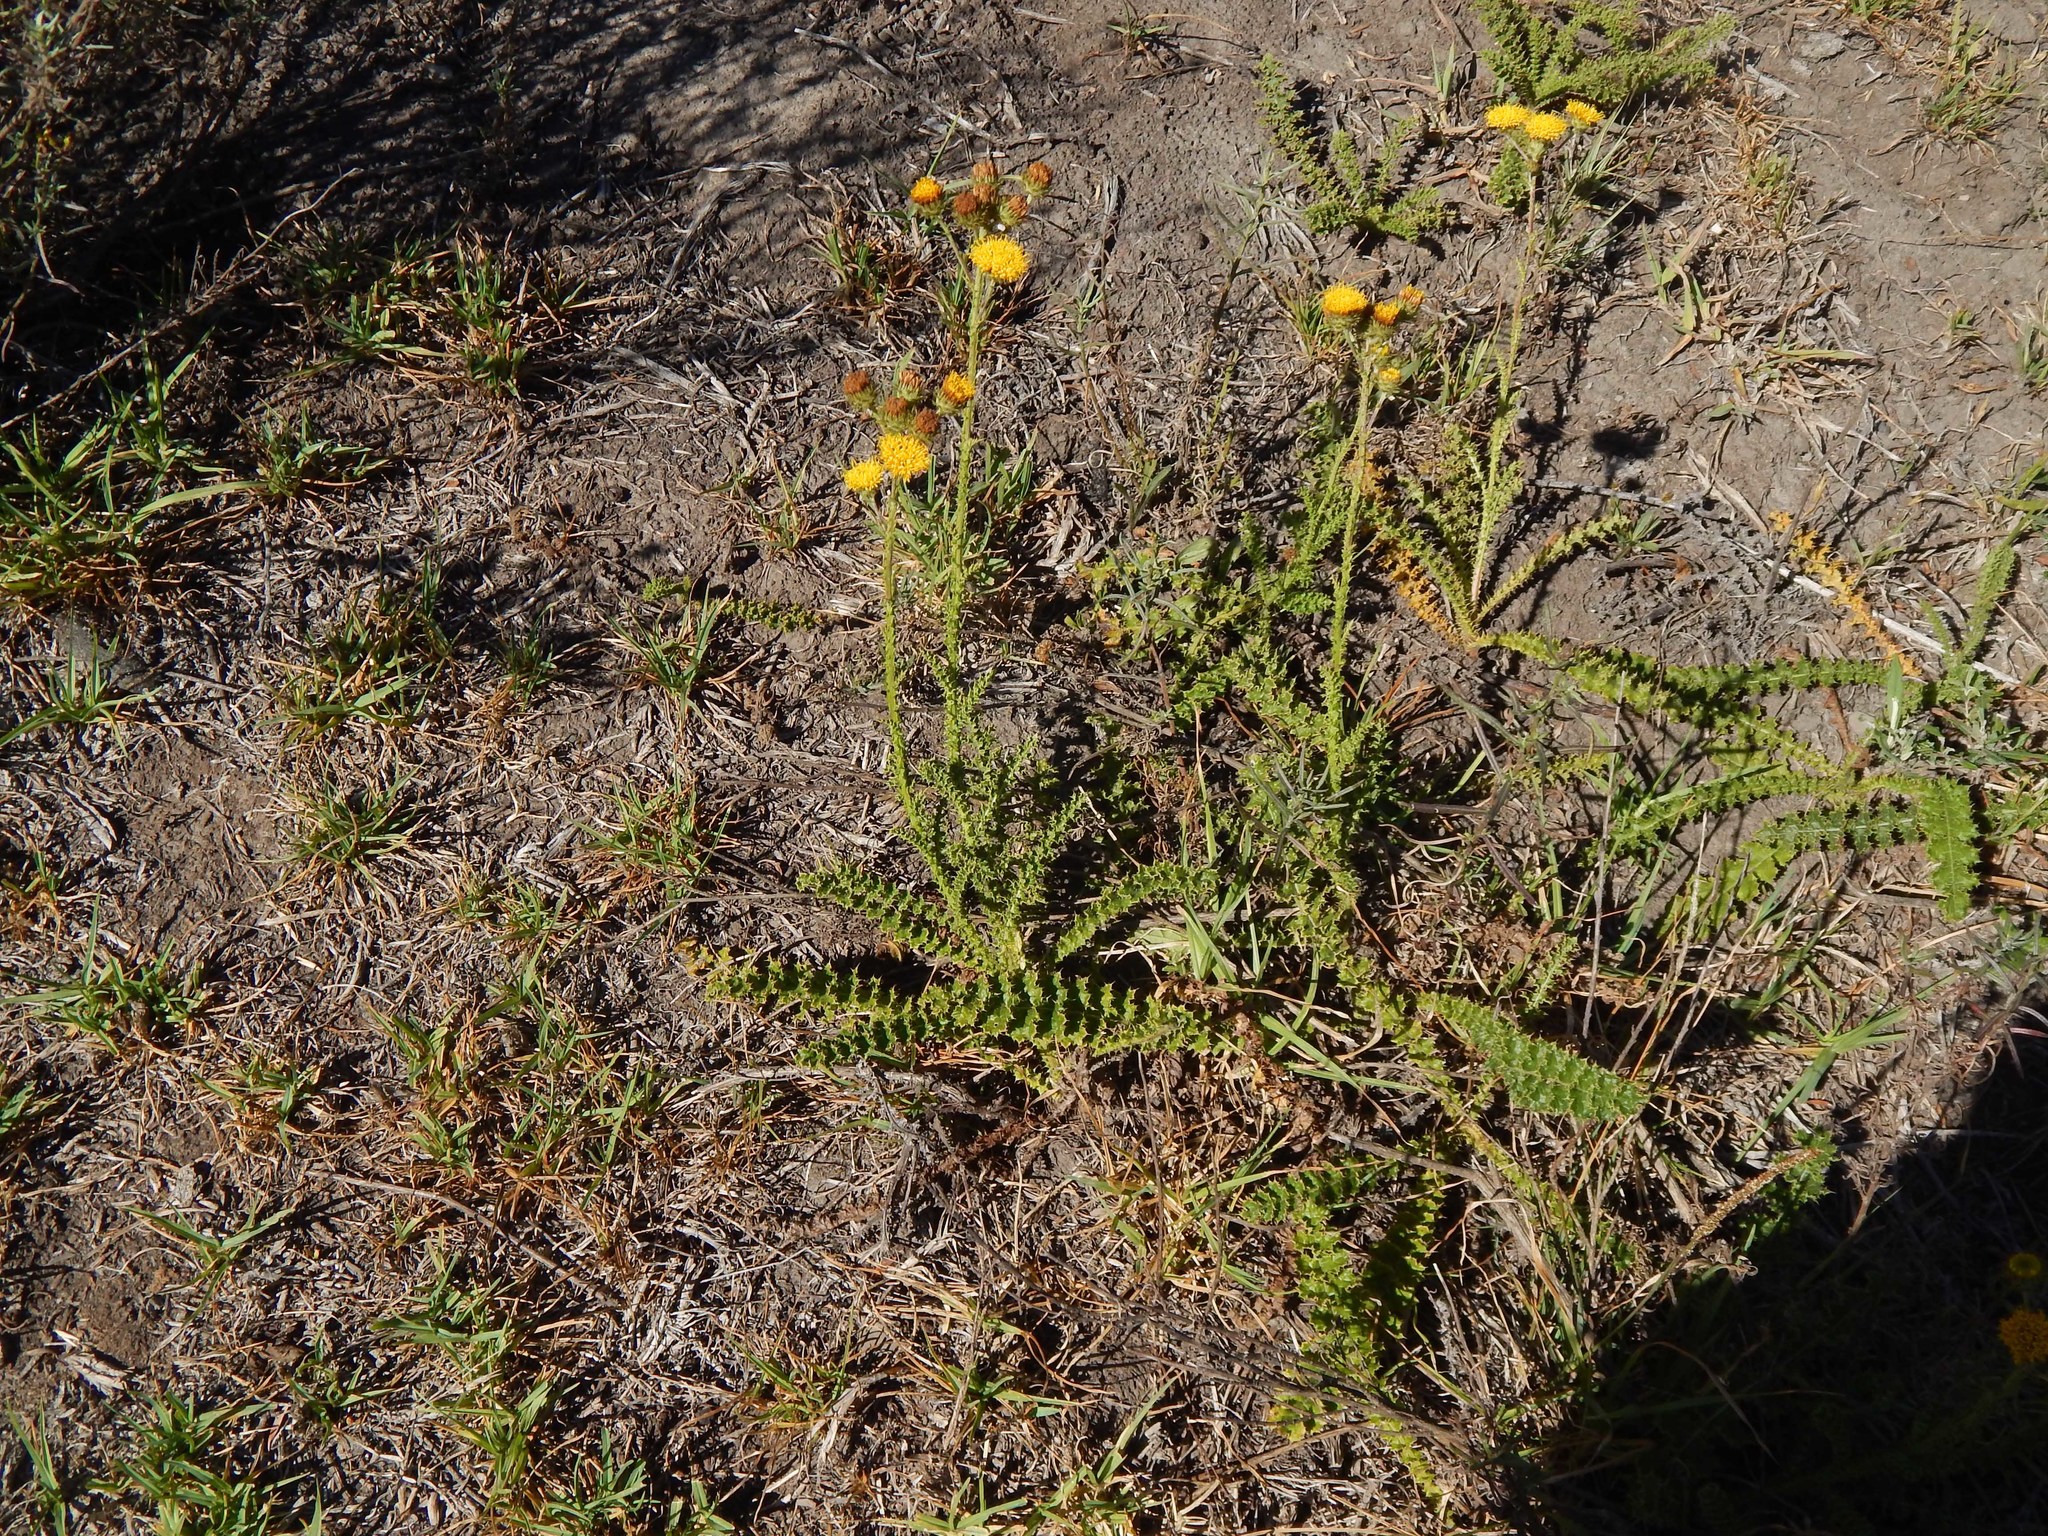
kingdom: Plantae
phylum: Tracheophyta
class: Magnoliopsida
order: Asterales
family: Asteraceae
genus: Berkheya
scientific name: Berkheya carduoides
